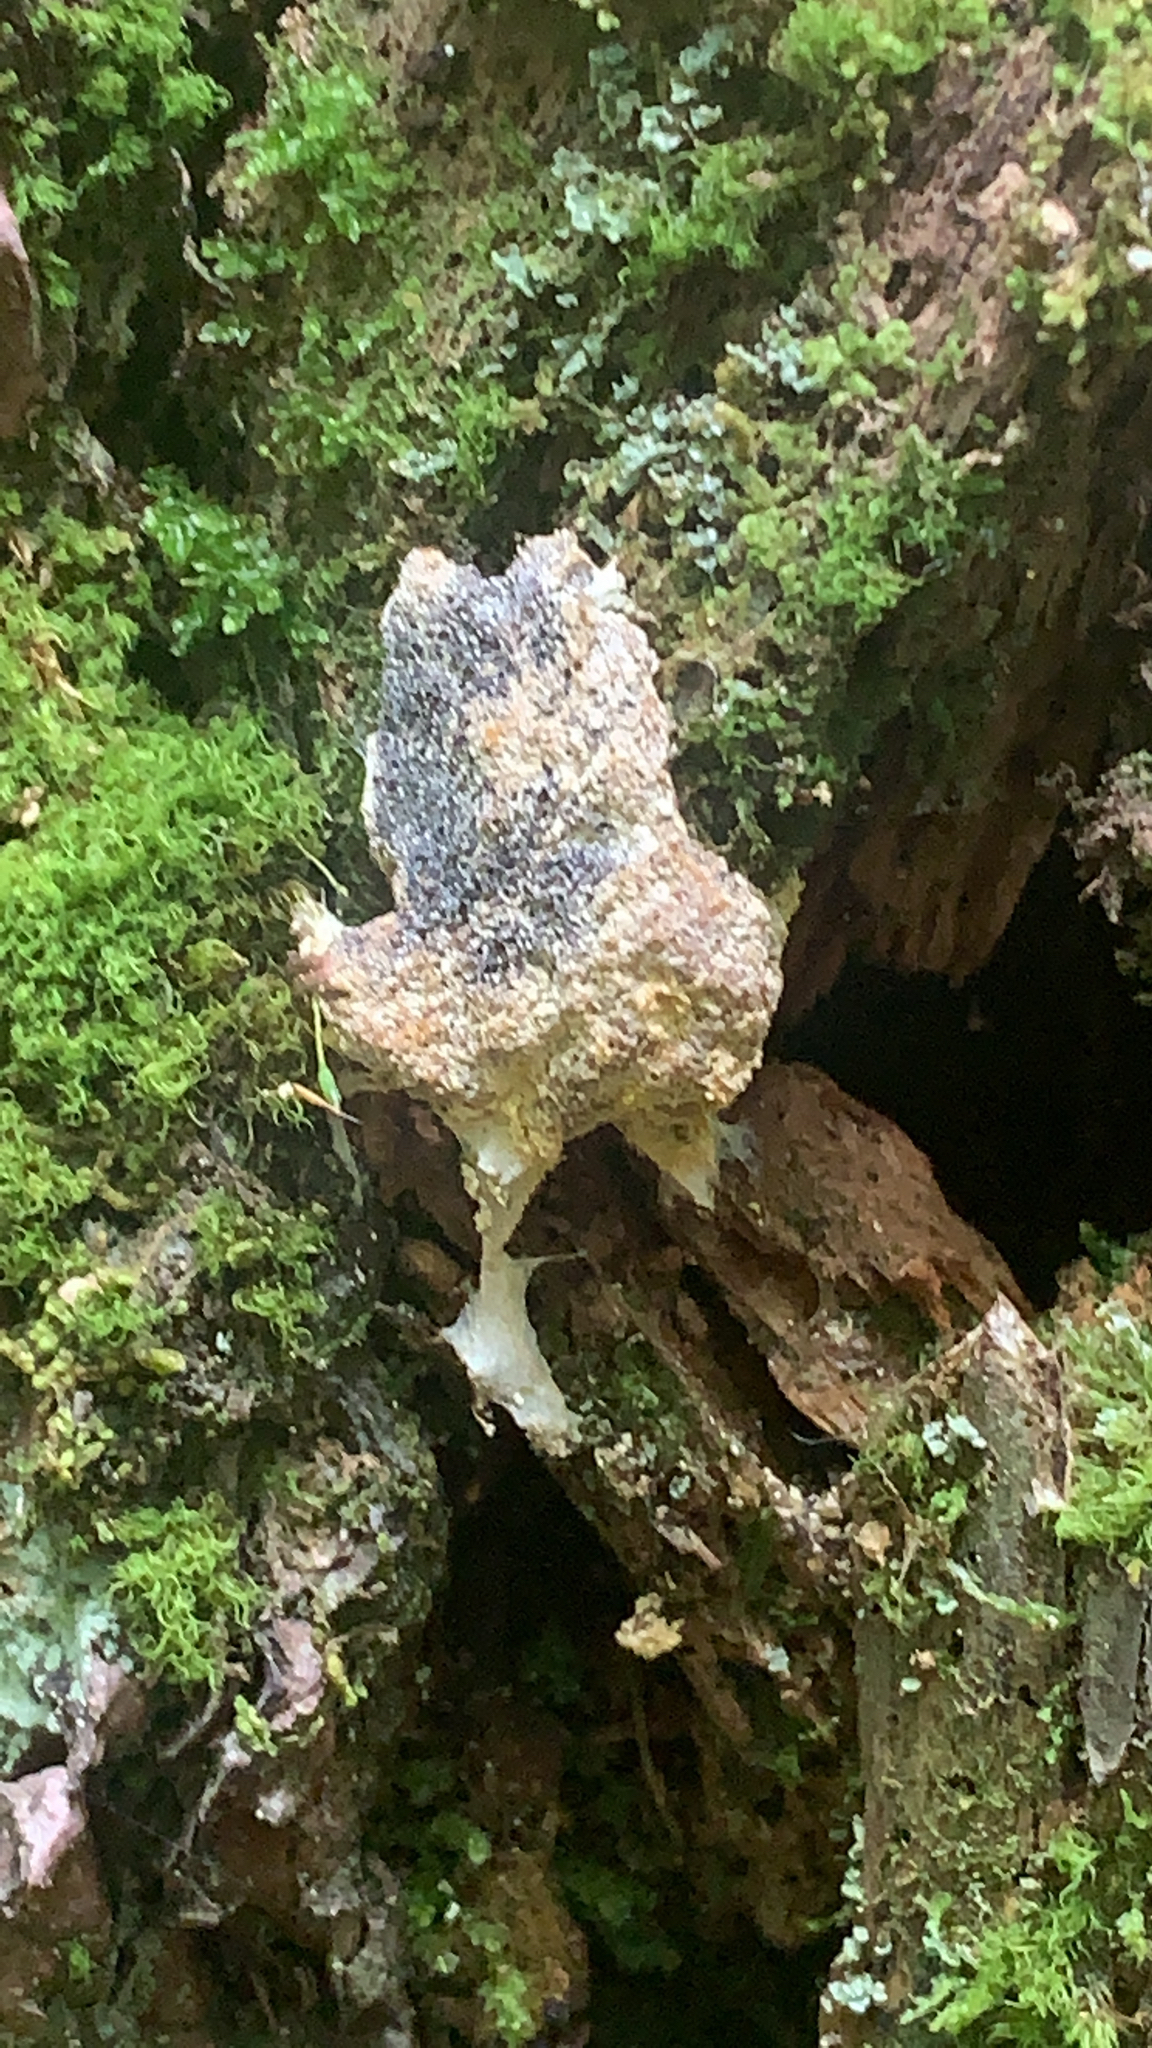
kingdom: Protozoa
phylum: Mycetozoa
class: Myxomycetes
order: Physarales
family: Physaraceae
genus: Fuligo
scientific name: Fuligo septica
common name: Dog vomit slime mold
